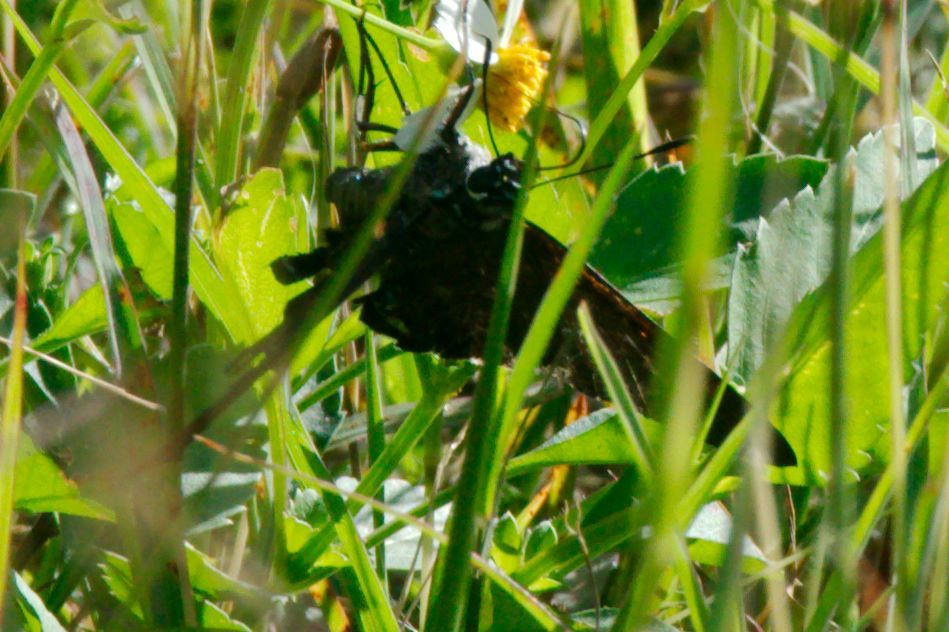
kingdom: Animalia
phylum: Arthropoda
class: Insecta
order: Lepidoptera
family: Hesperiidae
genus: Phocides
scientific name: Phocides pigmalion
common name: Mangrove skipper
